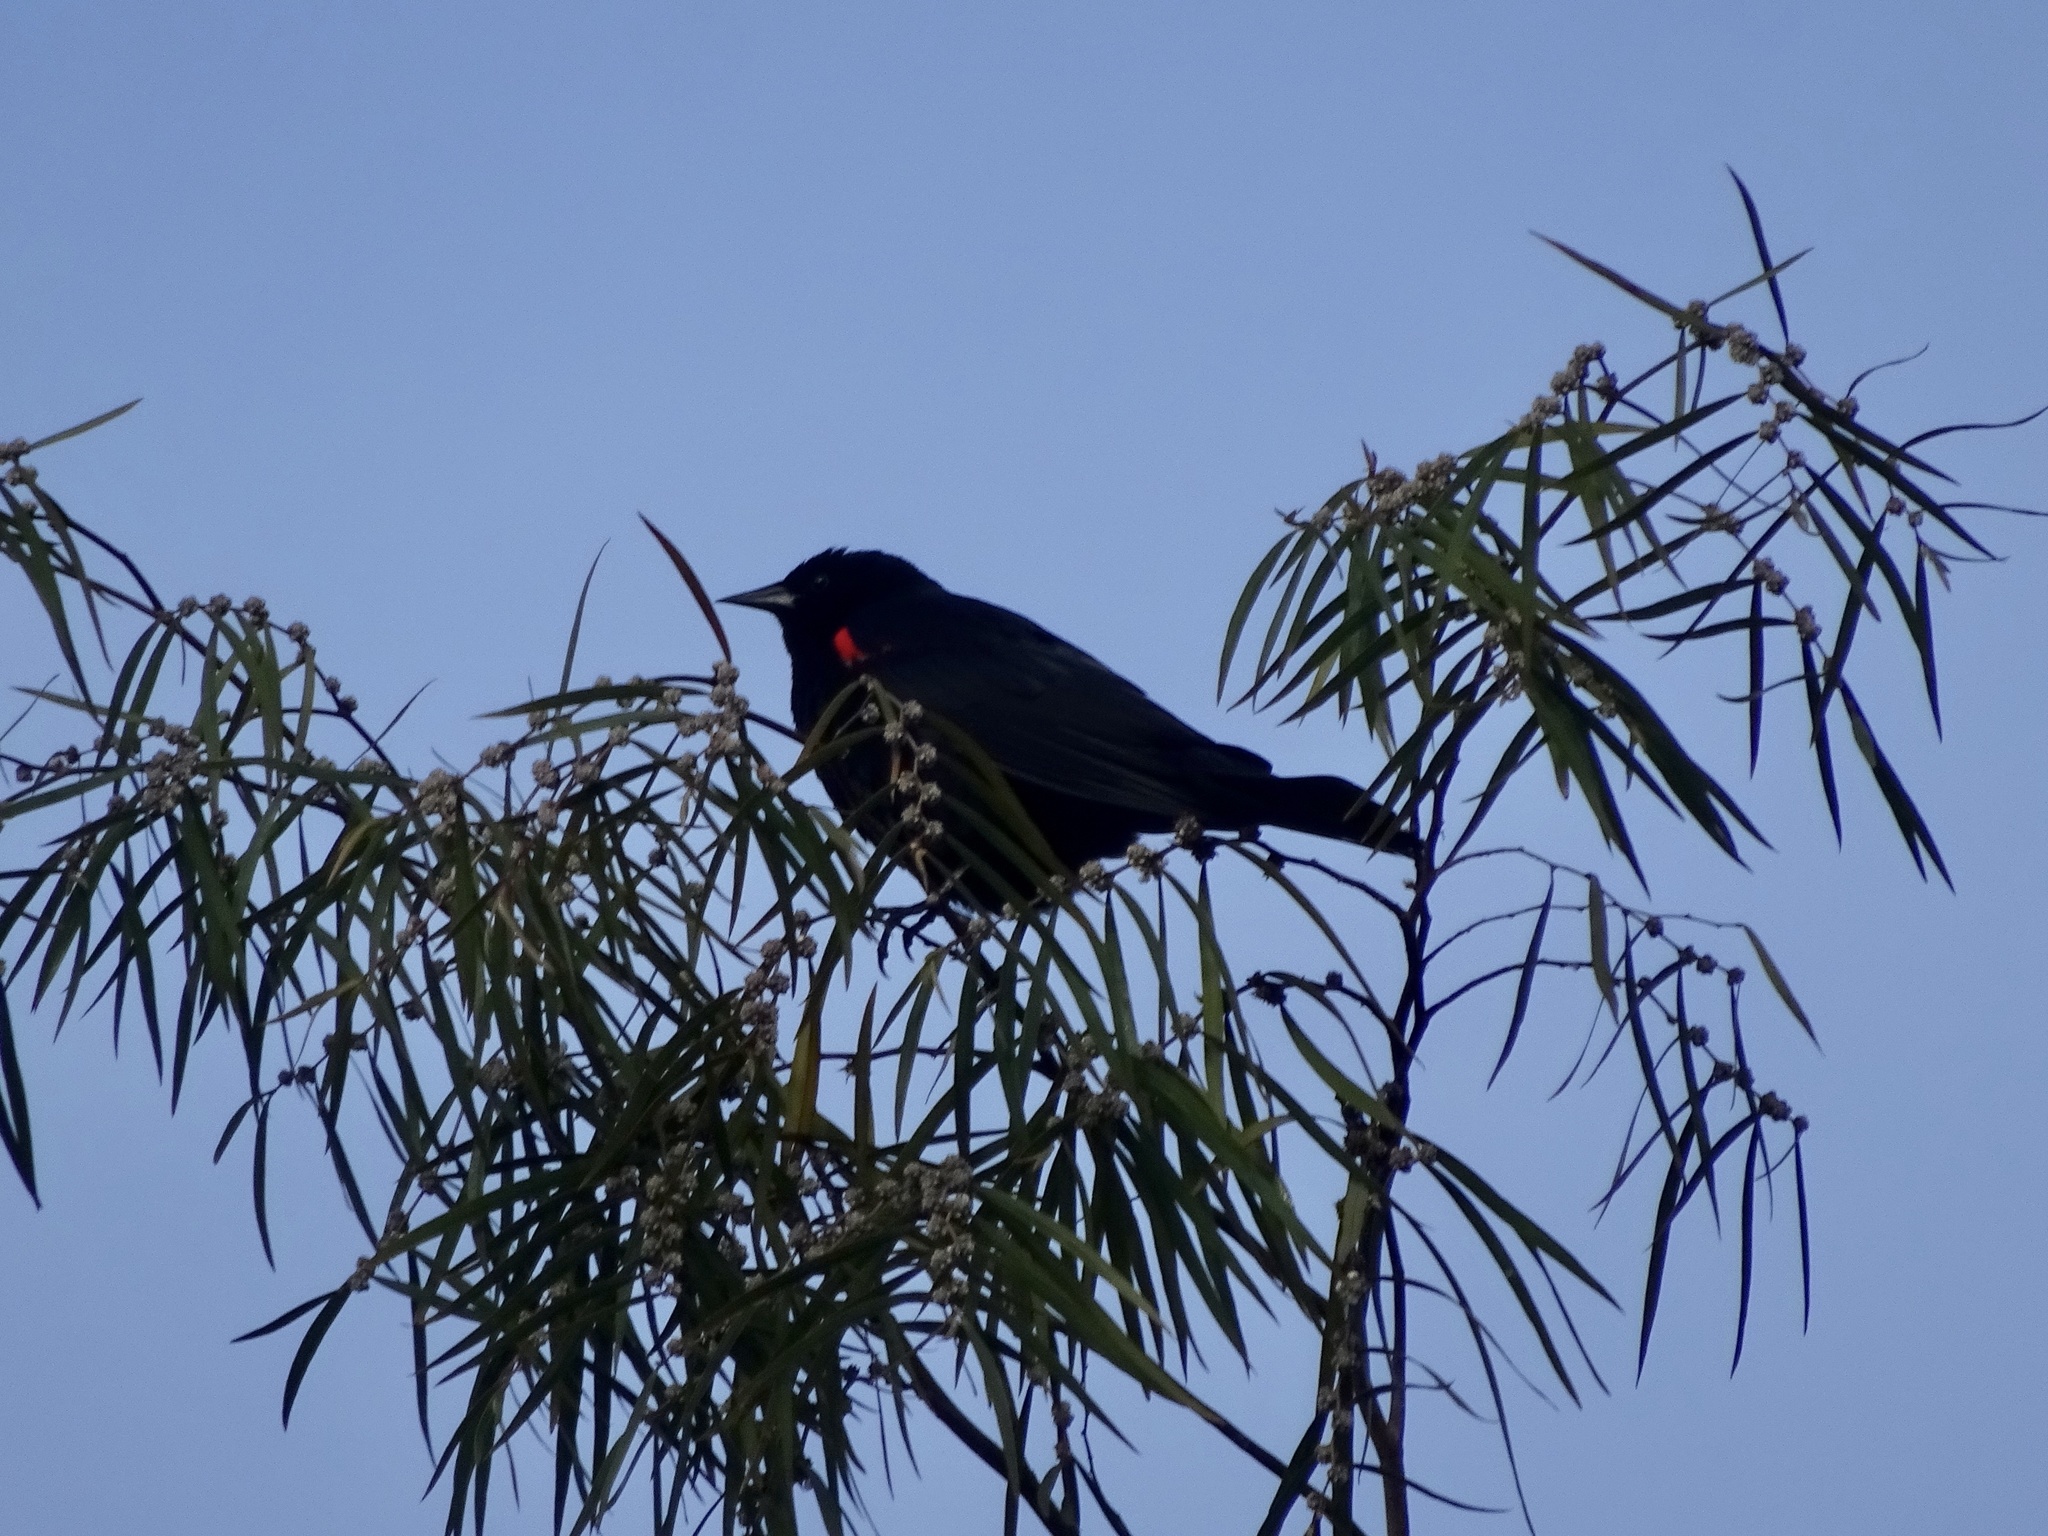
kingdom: Animalia
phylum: Chordata
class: Aves
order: Passeriformes
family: Icteridae
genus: Agelaius
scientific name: Agelaius phoeniceus
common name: Red-winged blackbird
